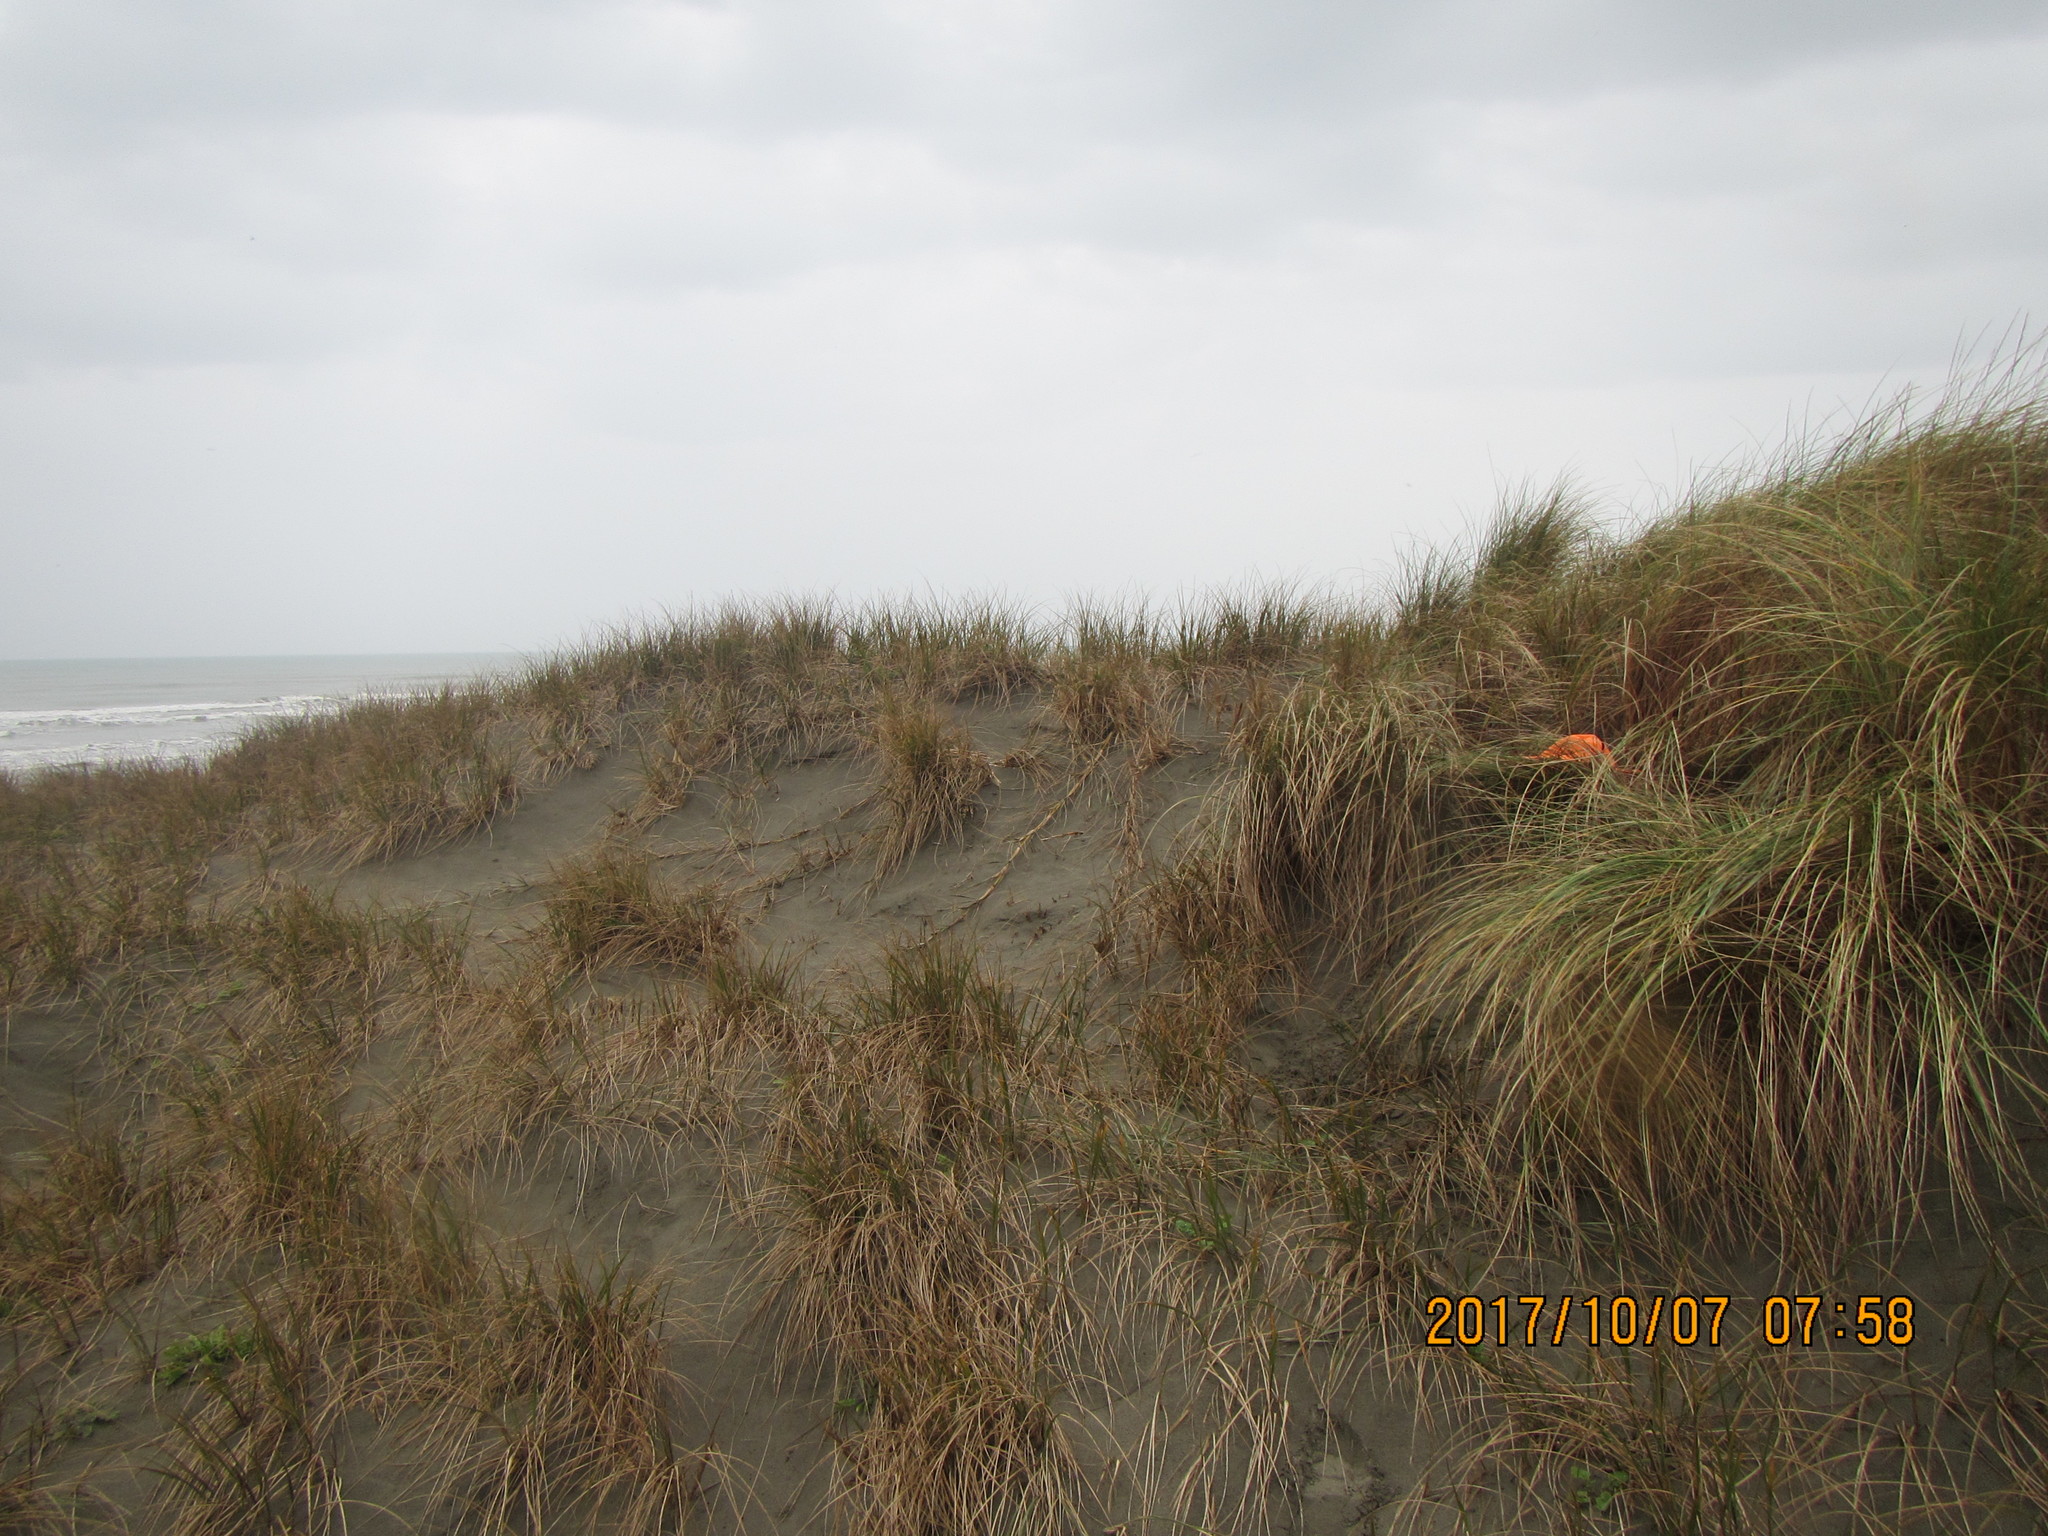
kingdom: Animalia
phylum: Arthropoda
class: Arachnida
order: Araneae
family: Thomisidae
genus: Sidymella
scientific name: Sidymella trapezia
